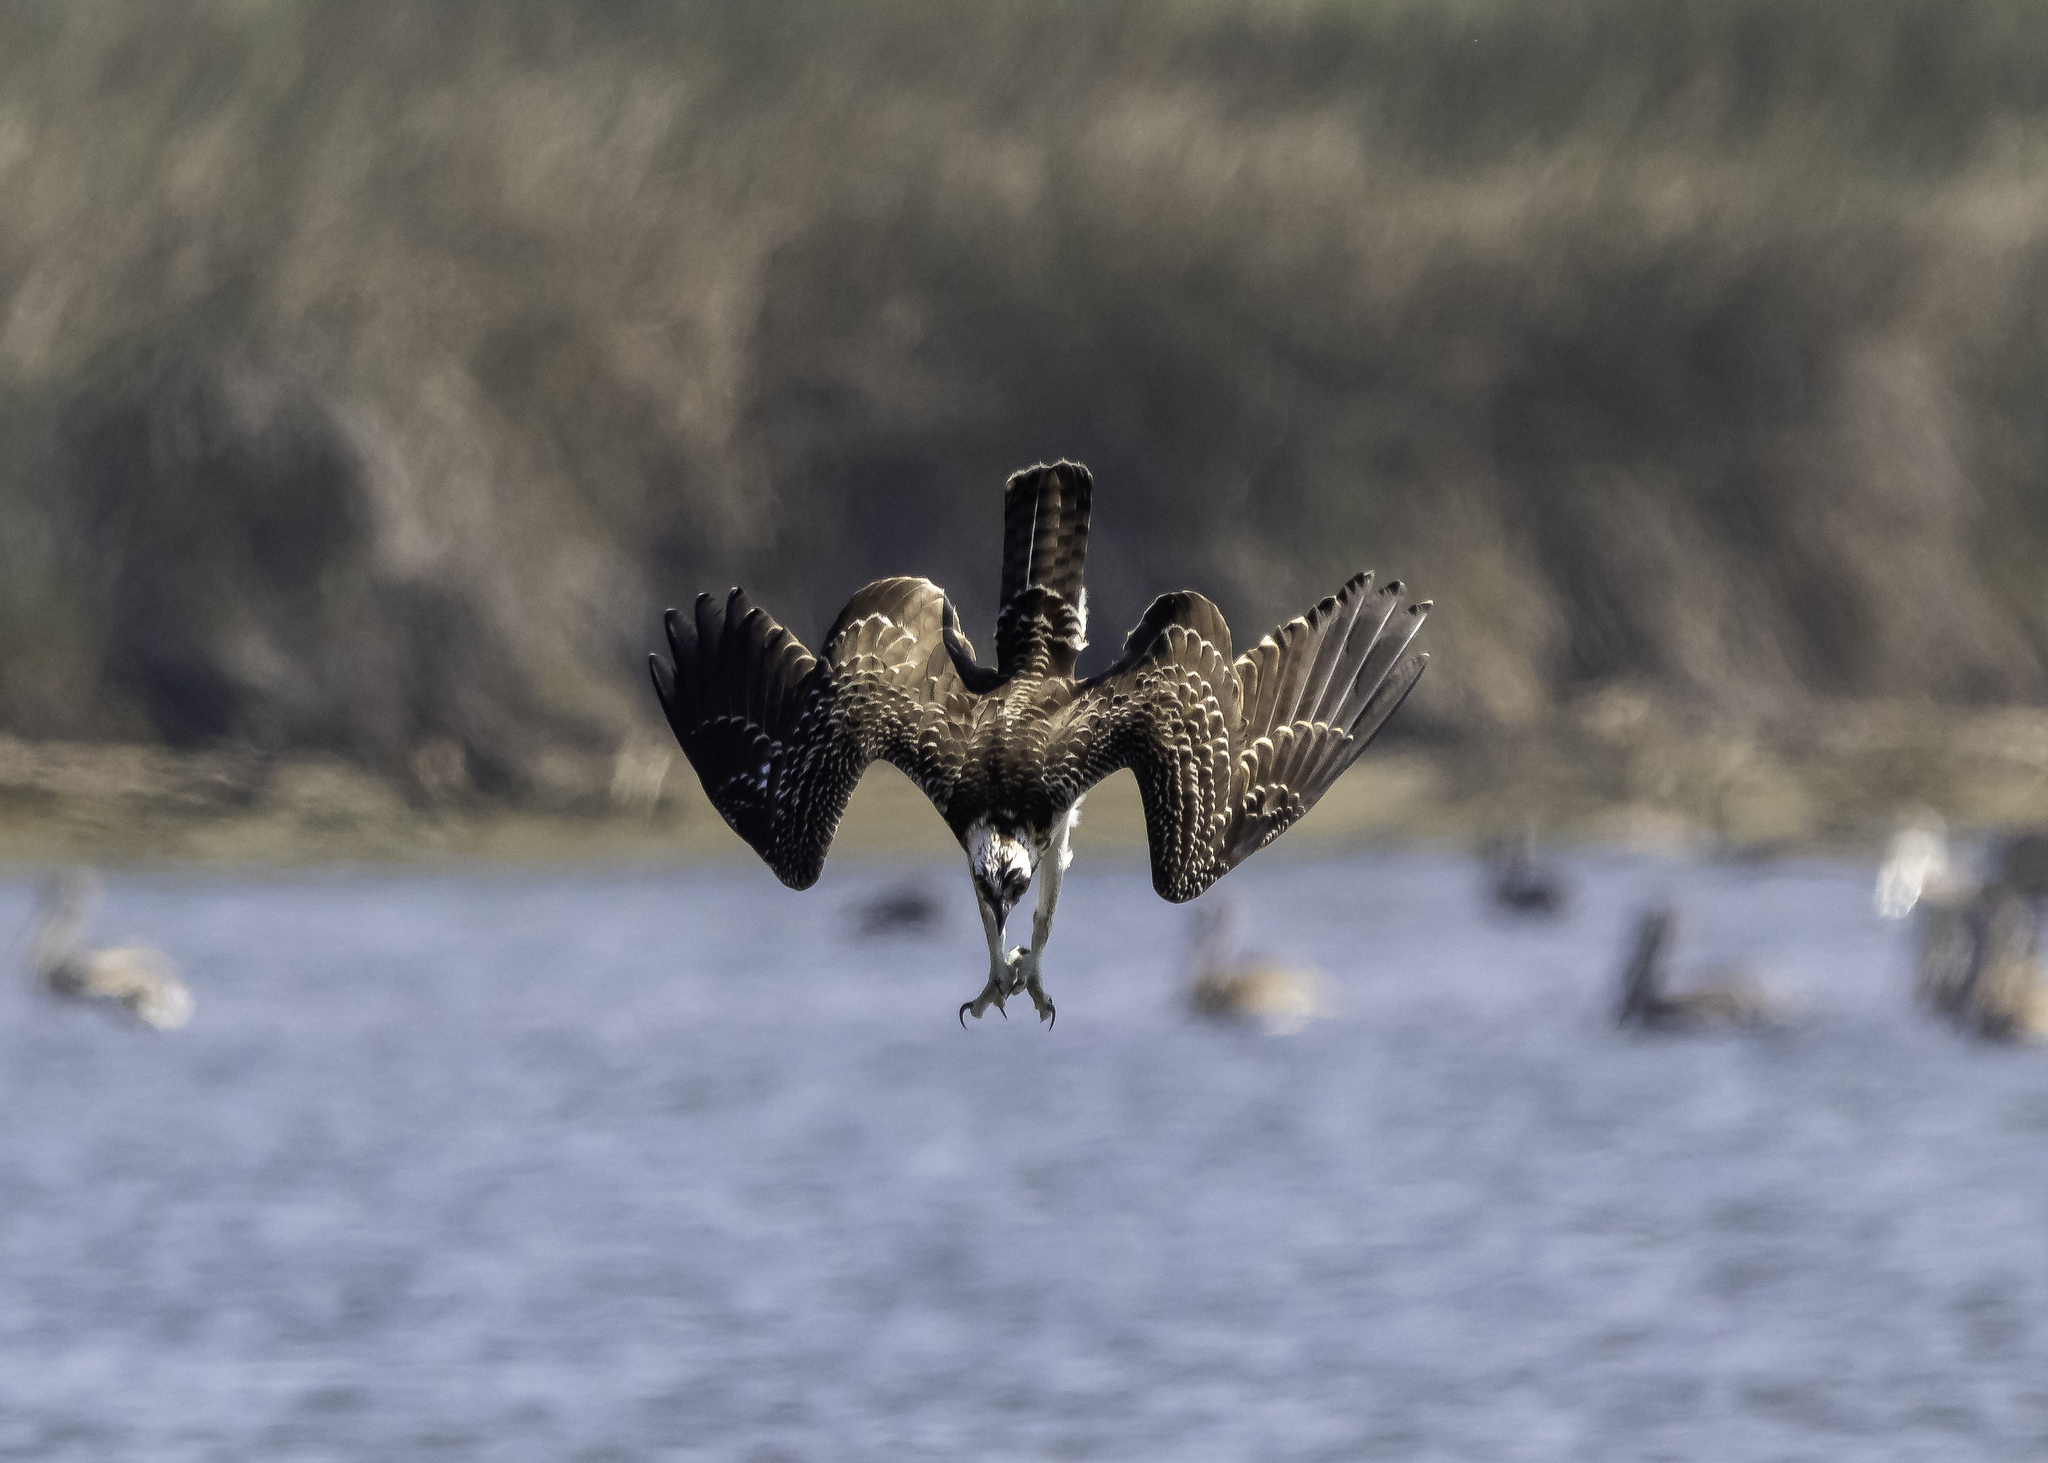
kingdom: Animalia
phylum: Chordata
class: Aves
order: Accipitriformes
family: Pandionidae
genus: Pandion
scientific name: Pandion haliaetus
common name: Osprey
